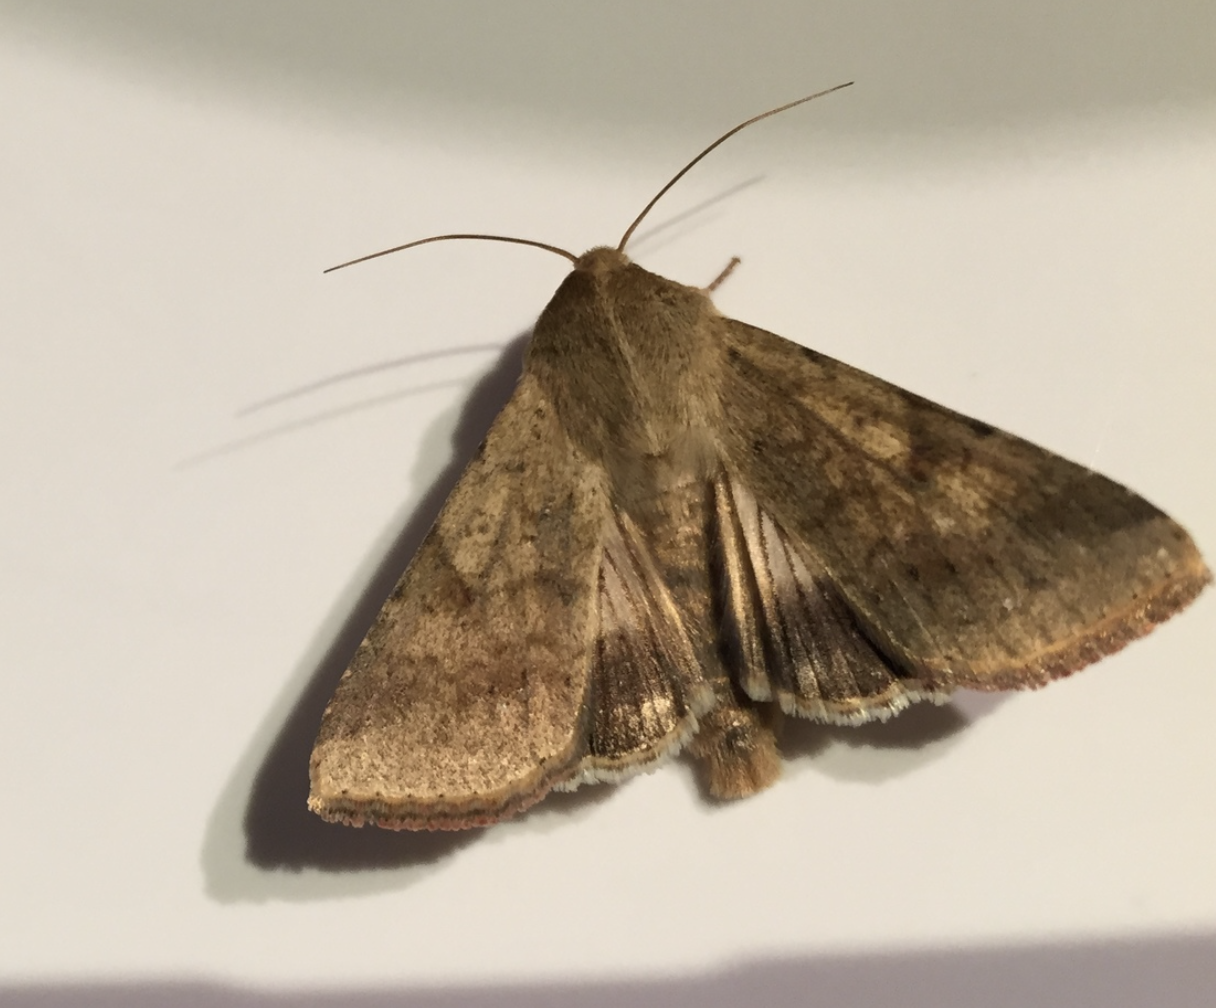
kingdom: Animalia
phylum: Arthropoda
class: Insecta
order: Lepidoptera
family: Noctuidae
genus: Helicoverpa
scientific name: Helicoverpa armigera
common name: Cotton bollworm
